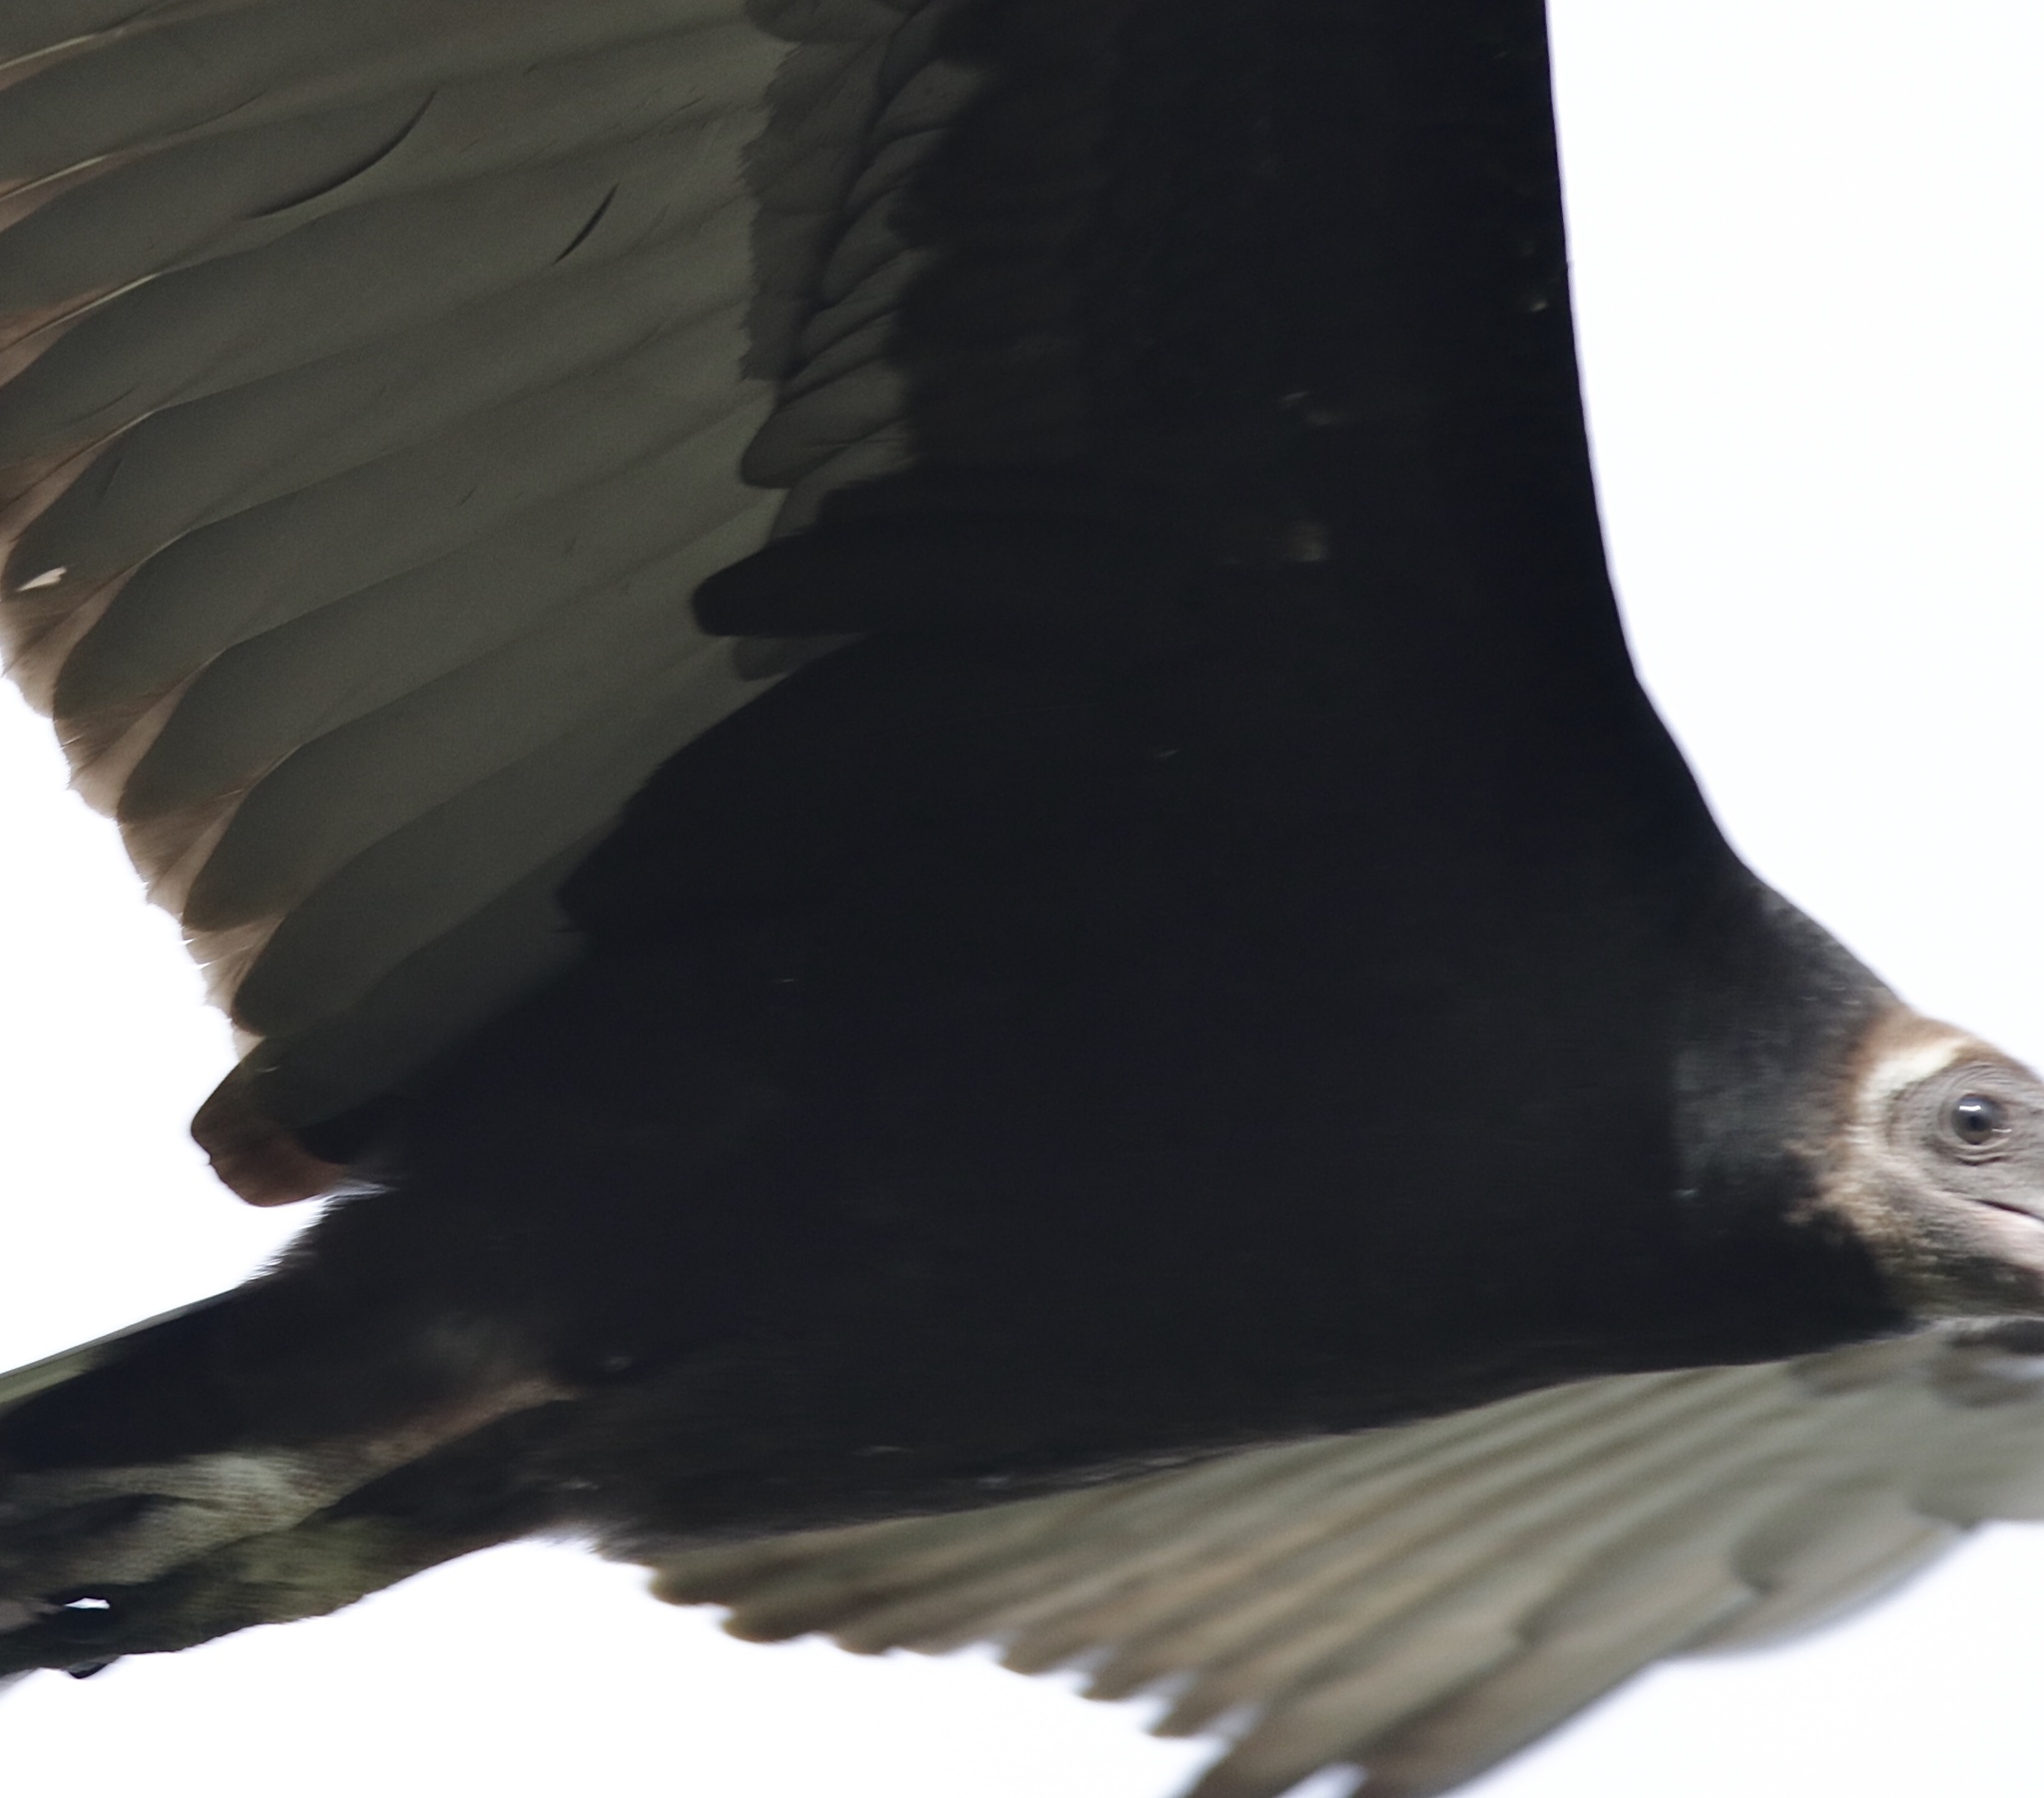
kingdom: Animalia
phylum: Chordata
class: Aves
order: Accipitriformes
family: Cathartidae
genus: Cathartes
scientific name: Cathartes aura
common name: Turkey vulture
